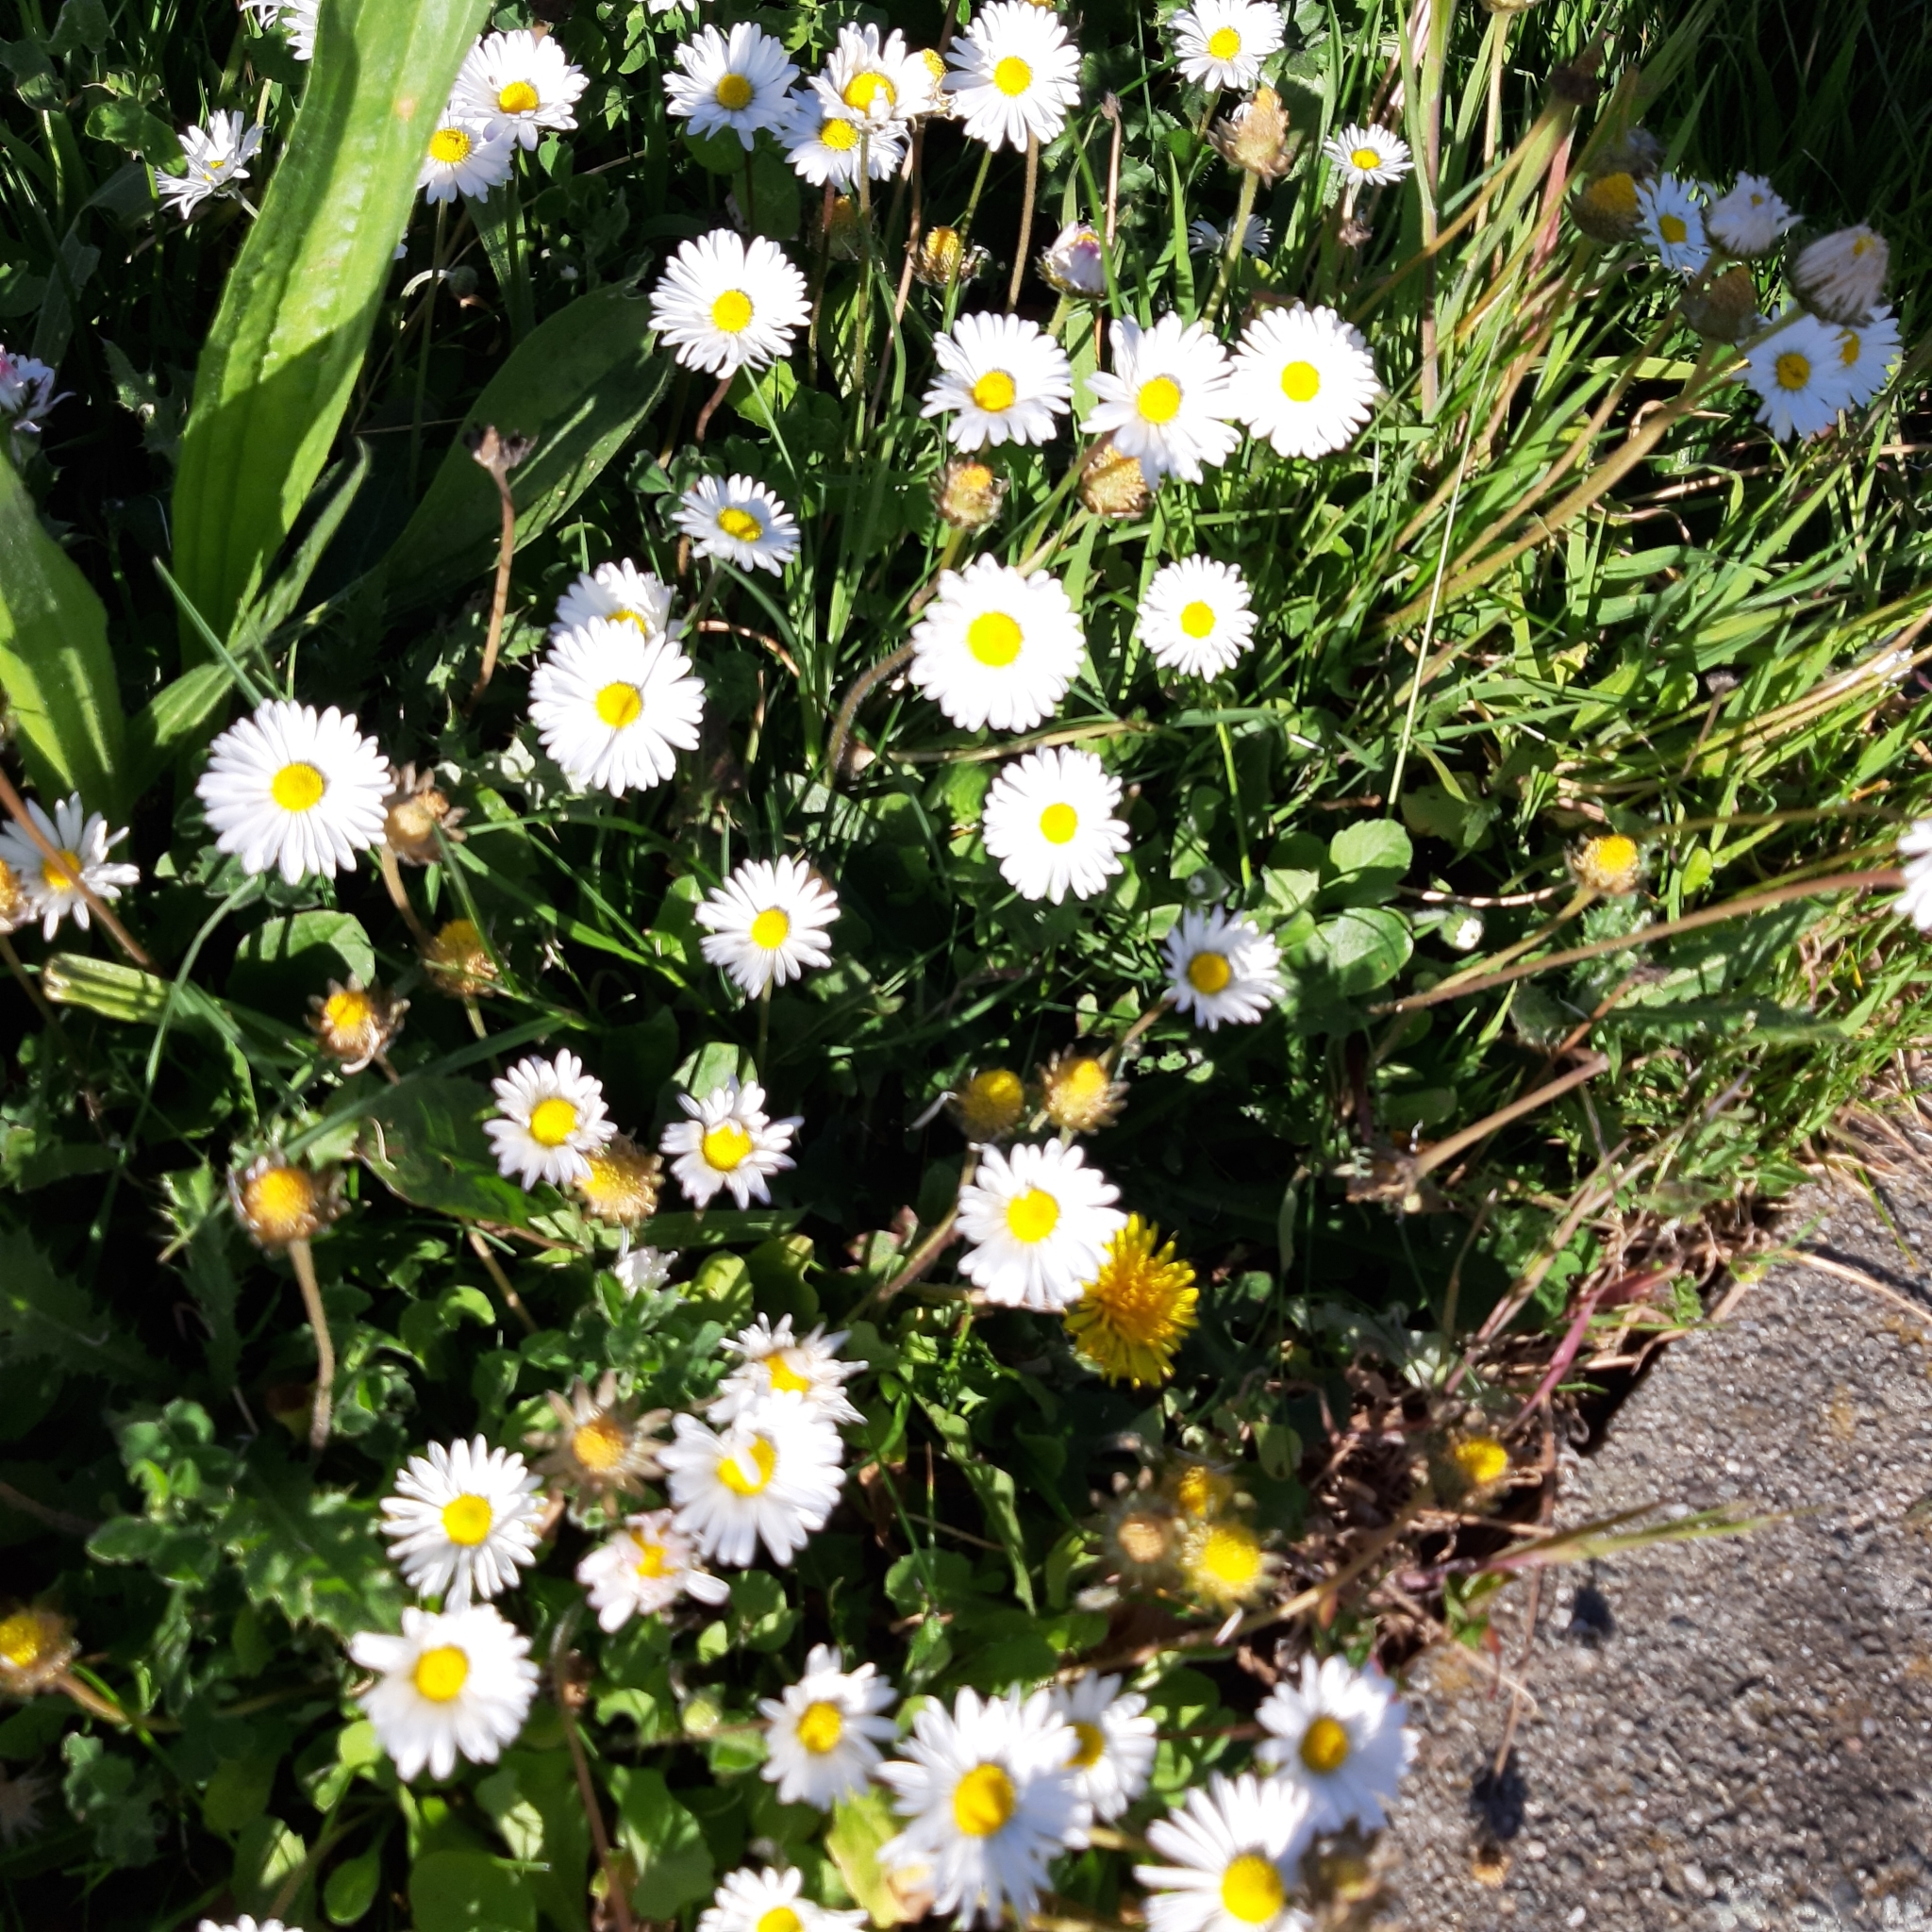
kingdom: Plantae
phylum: Tracheophyta
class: Magnoliopsida
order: Asterales
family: Asteraceae
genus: Bellis
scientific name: Bellis perennis
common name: Lawndaisy
